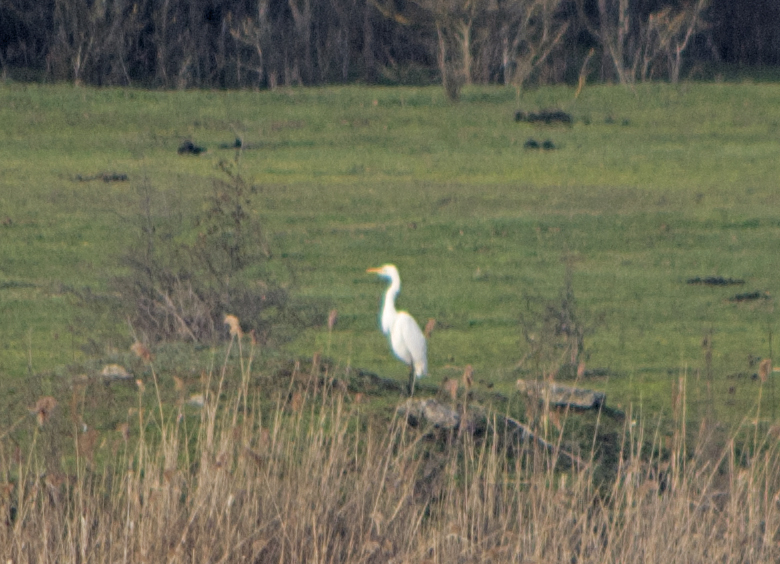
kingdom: Animalia
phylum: Chordata
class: Aves
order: Pelecaniformes
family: Ardeidae
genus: Ardea
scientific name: Ardea alba
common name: Great egret
